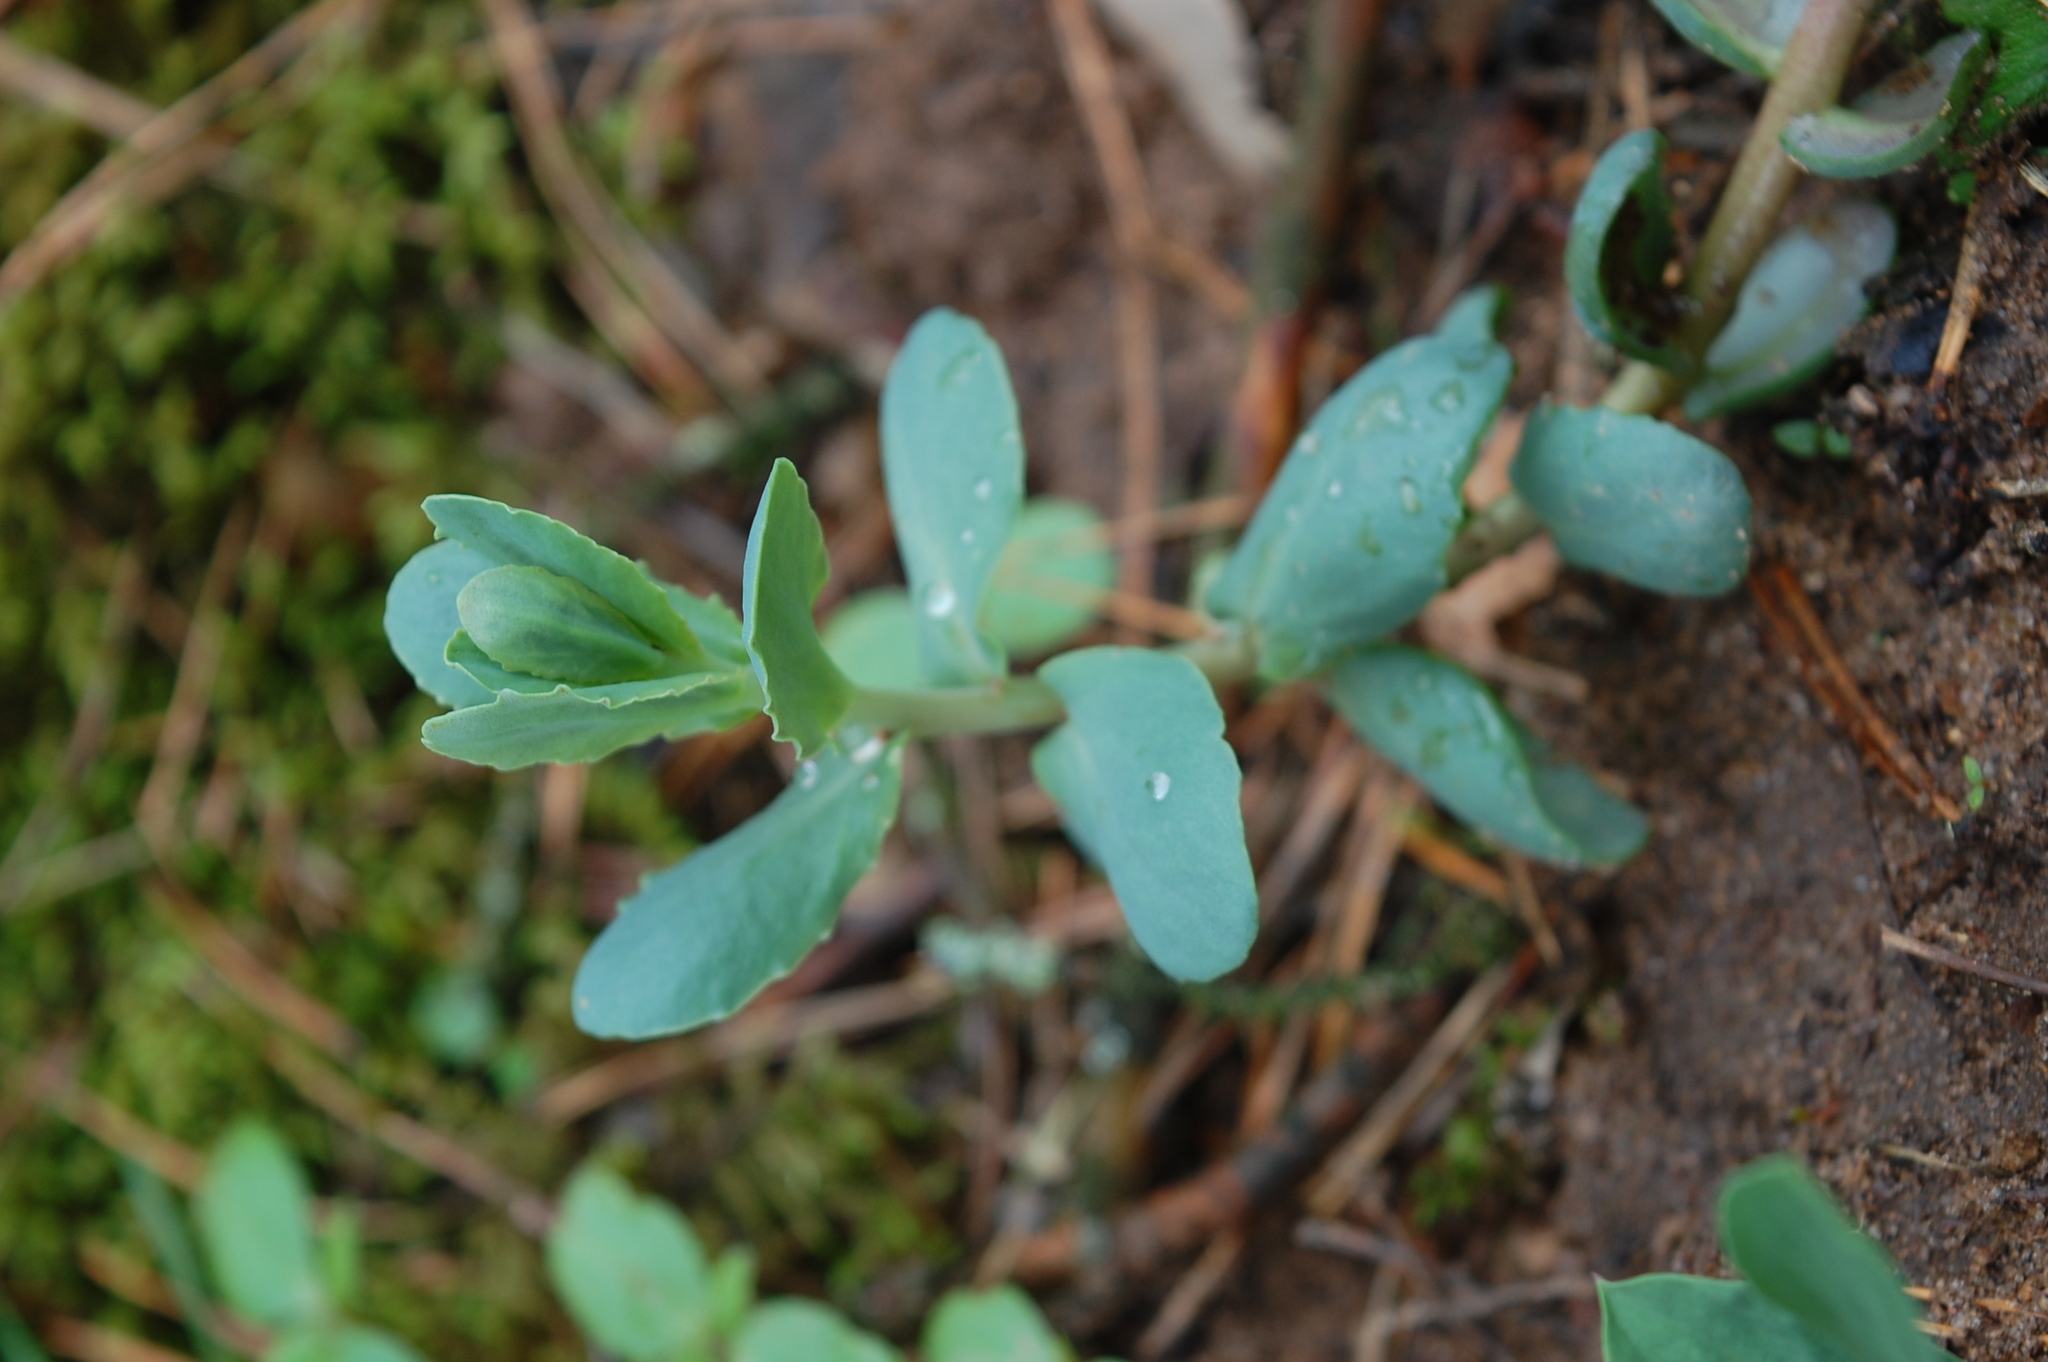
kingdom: Plantae
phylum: Tracheophyta
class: Magnoliopsida
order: Saxifragales
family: Crassulaceae
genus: Hylotelephium
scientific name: Hylotelephium telephium
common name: Live-forever
